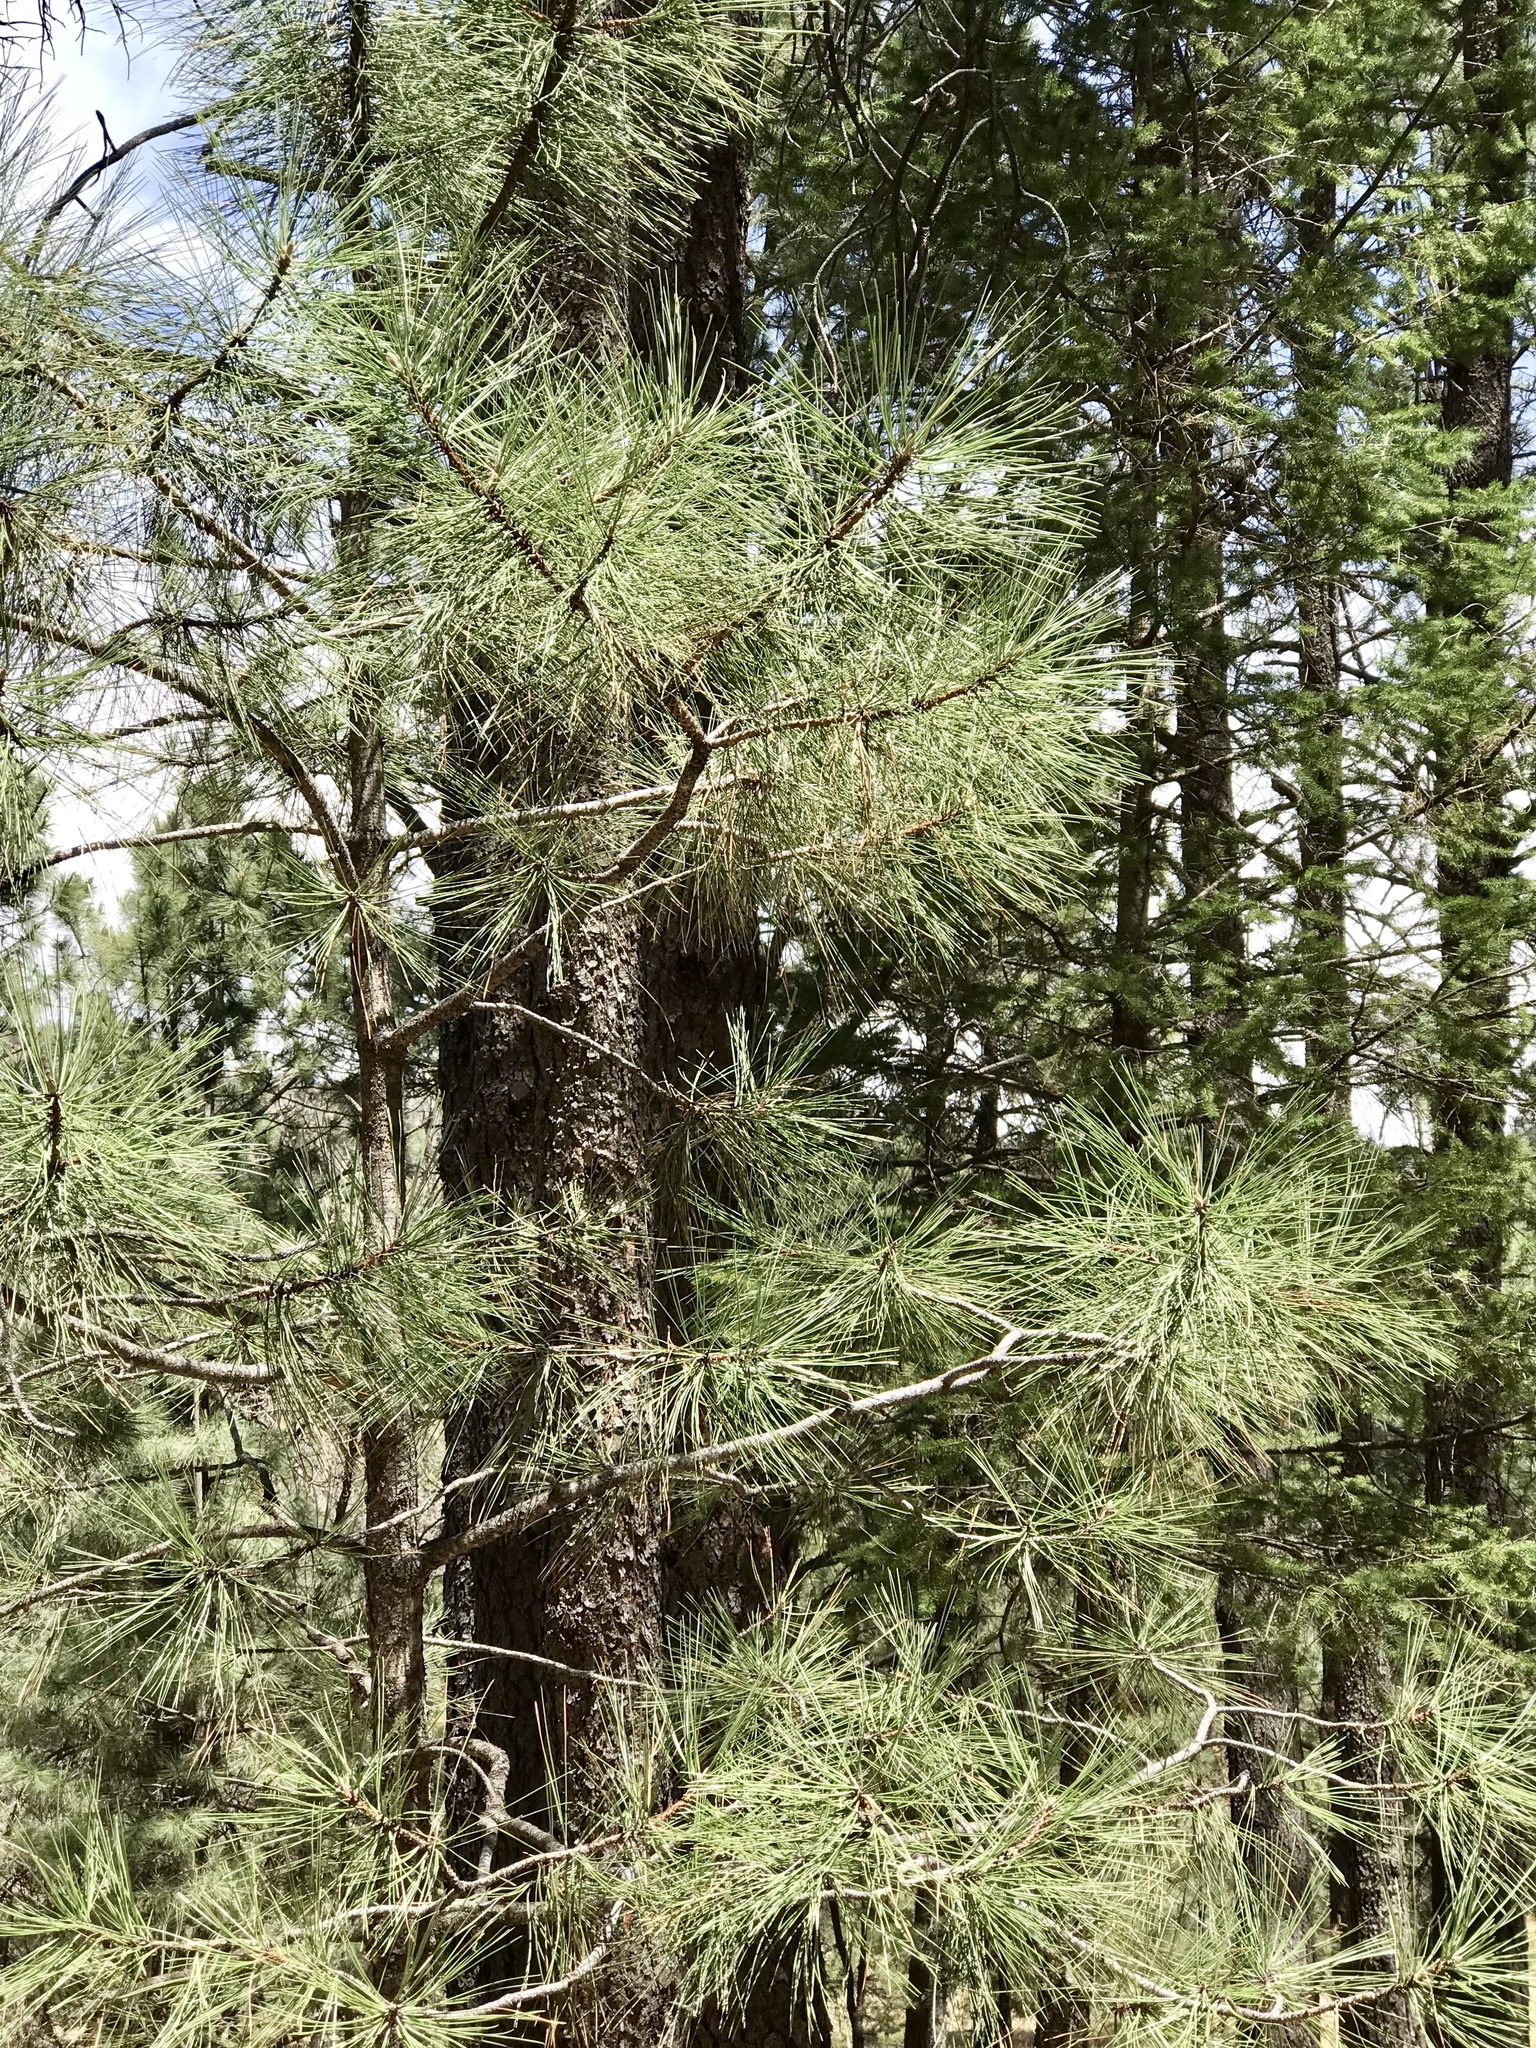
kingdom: Plantae
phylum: Tracheophyta
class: Pinopsida
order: Pinales
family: Pinaceae
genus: Pinus
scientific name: Pinus ponderosa
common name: Western yellow-pine
